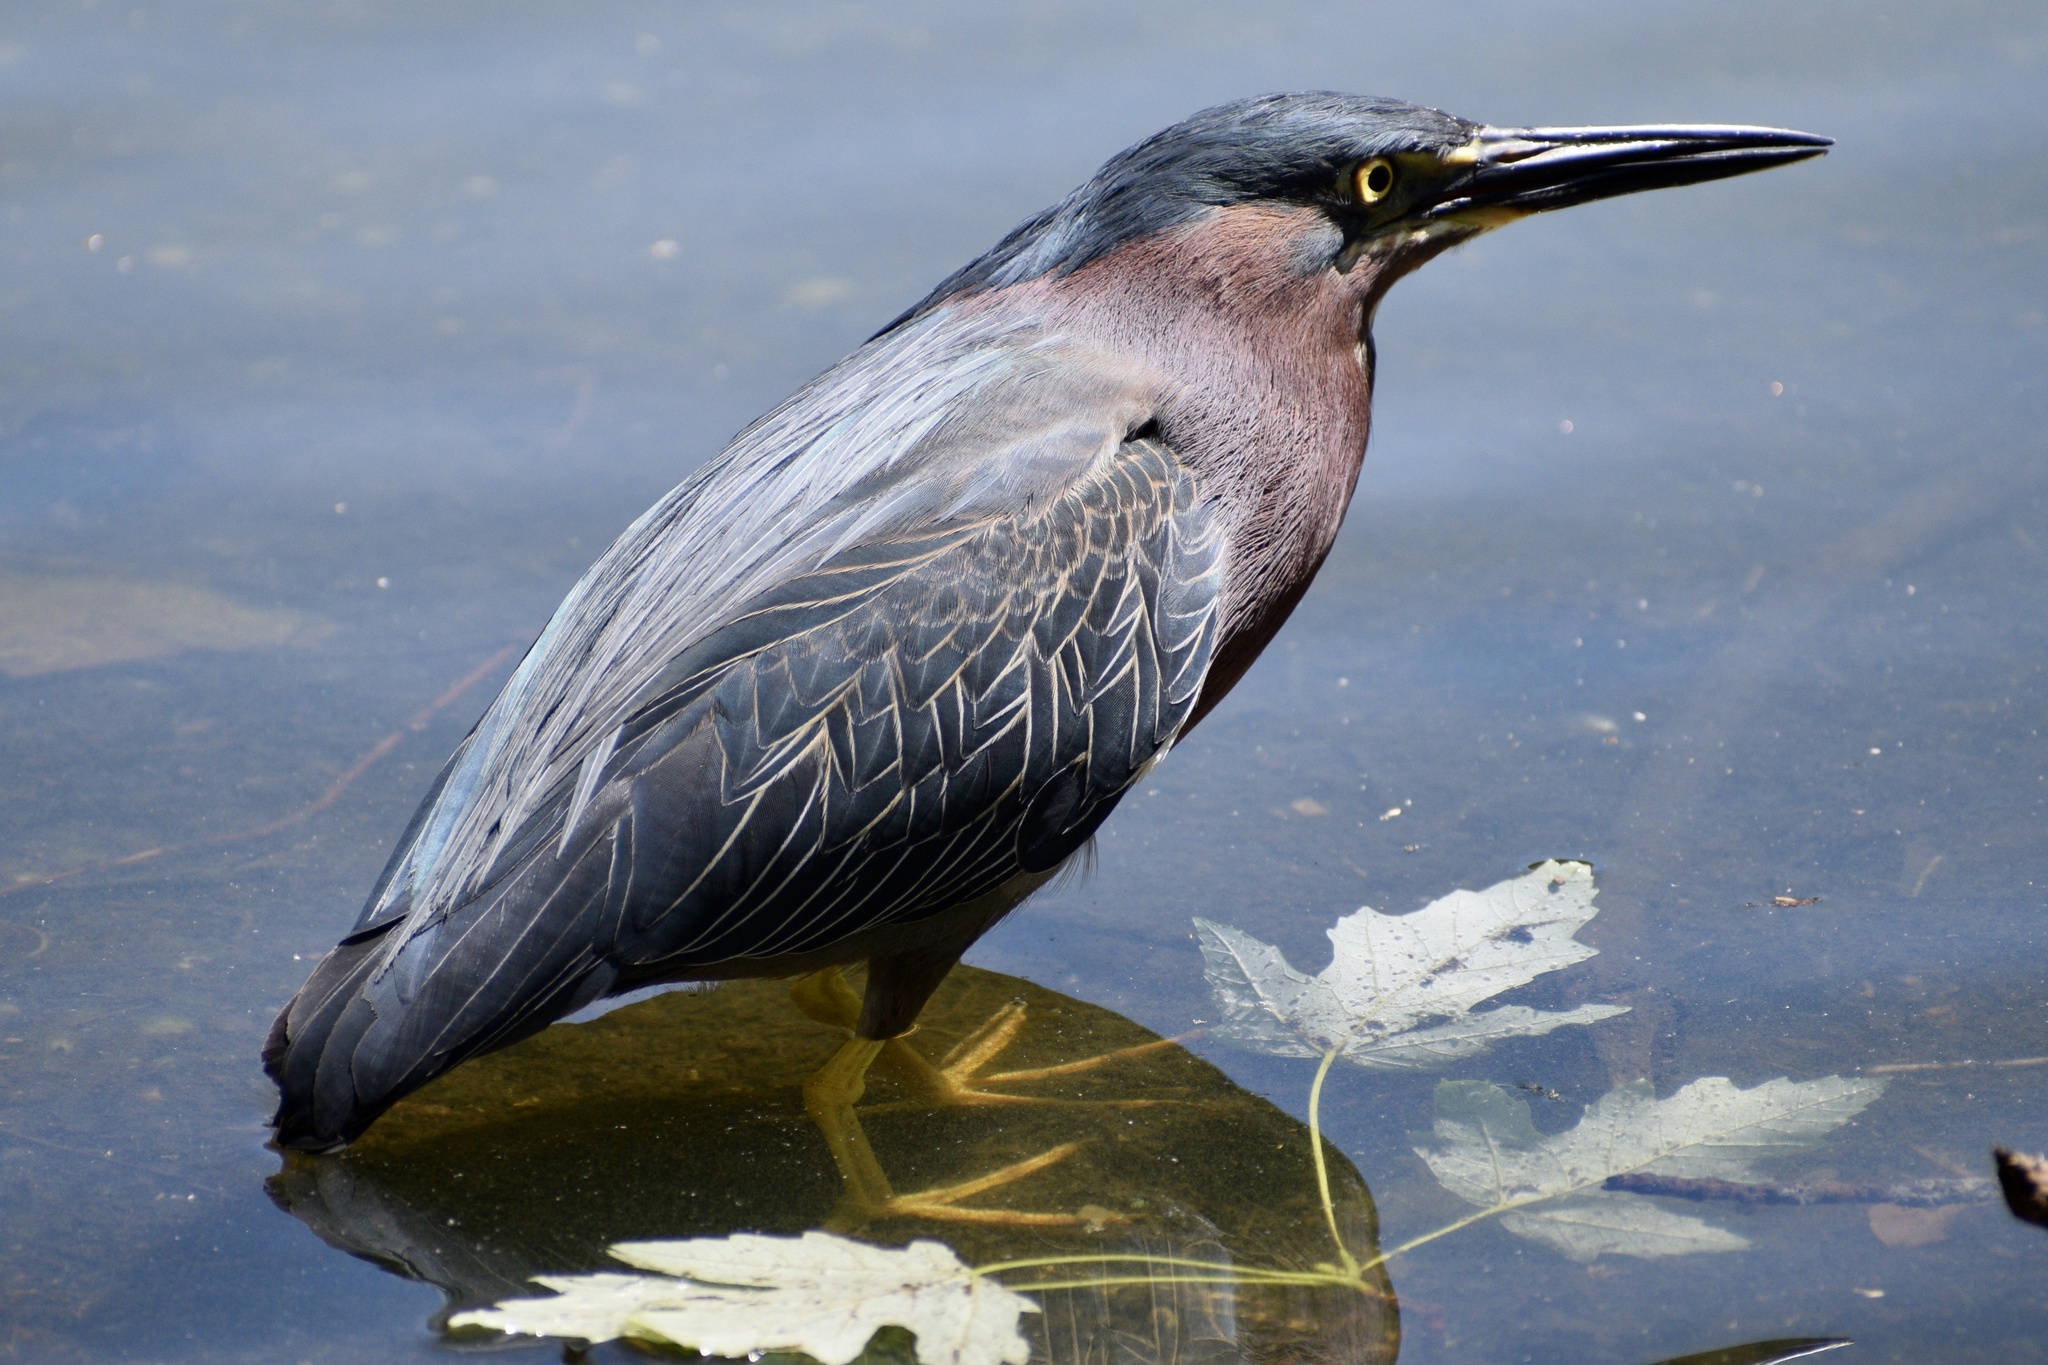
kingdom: Animalia
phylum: Chordata
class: Aves
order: Pelecaniformes
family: Ardeidae
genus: Butorides
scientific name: Butorides virescens
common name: Green heron
